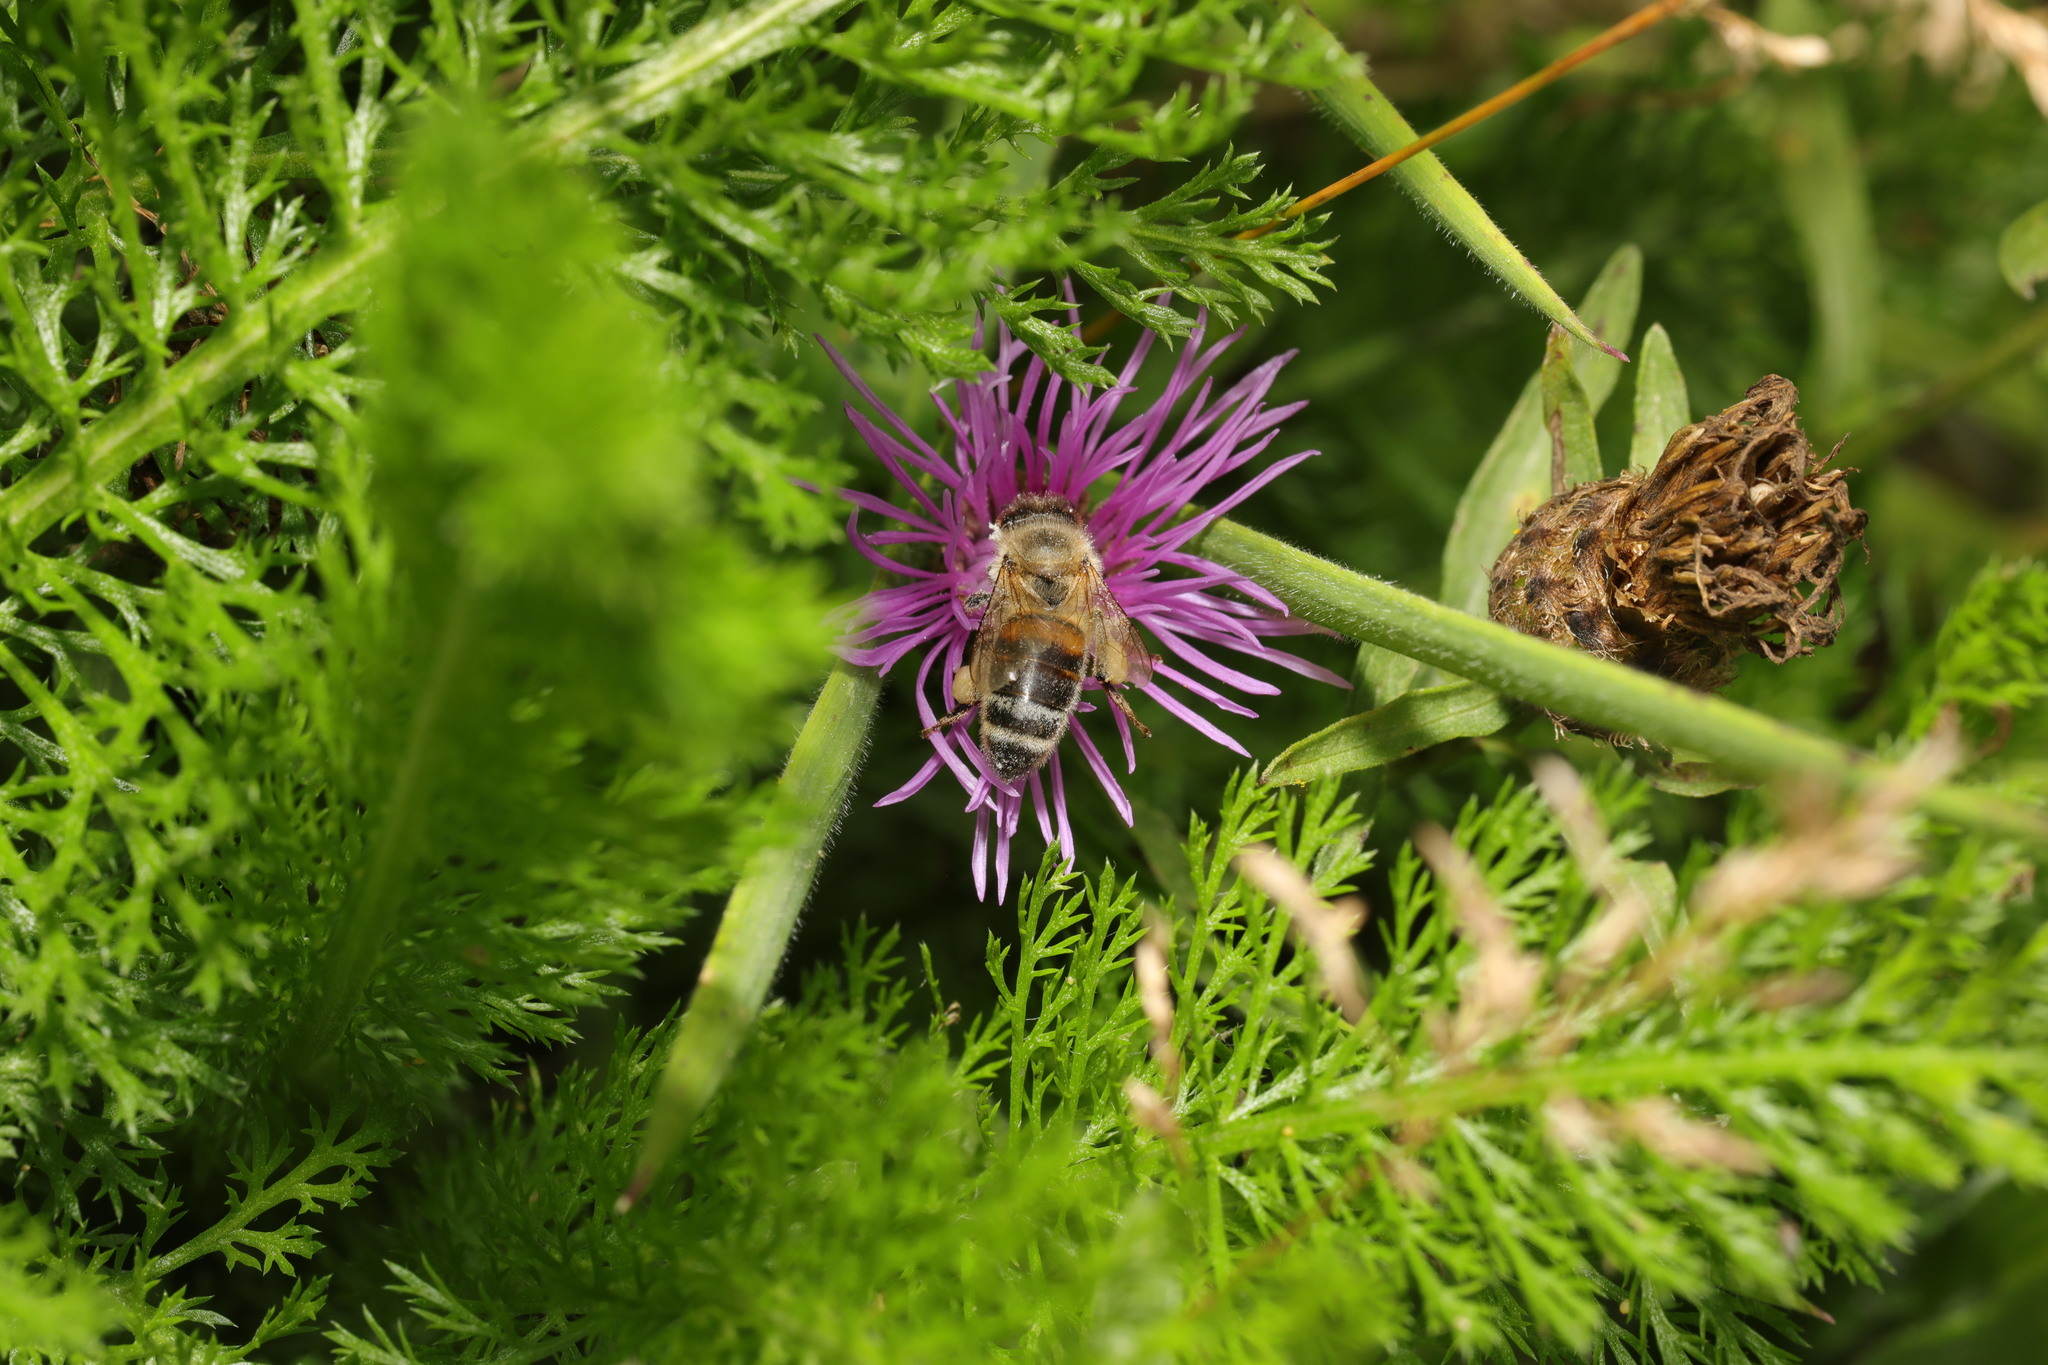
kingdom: Animalia
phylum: Arthropoda
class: Insecta
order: Hymenoptera
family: Apidae
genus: Apis
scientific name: Apis mellifera
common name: Honey bee
